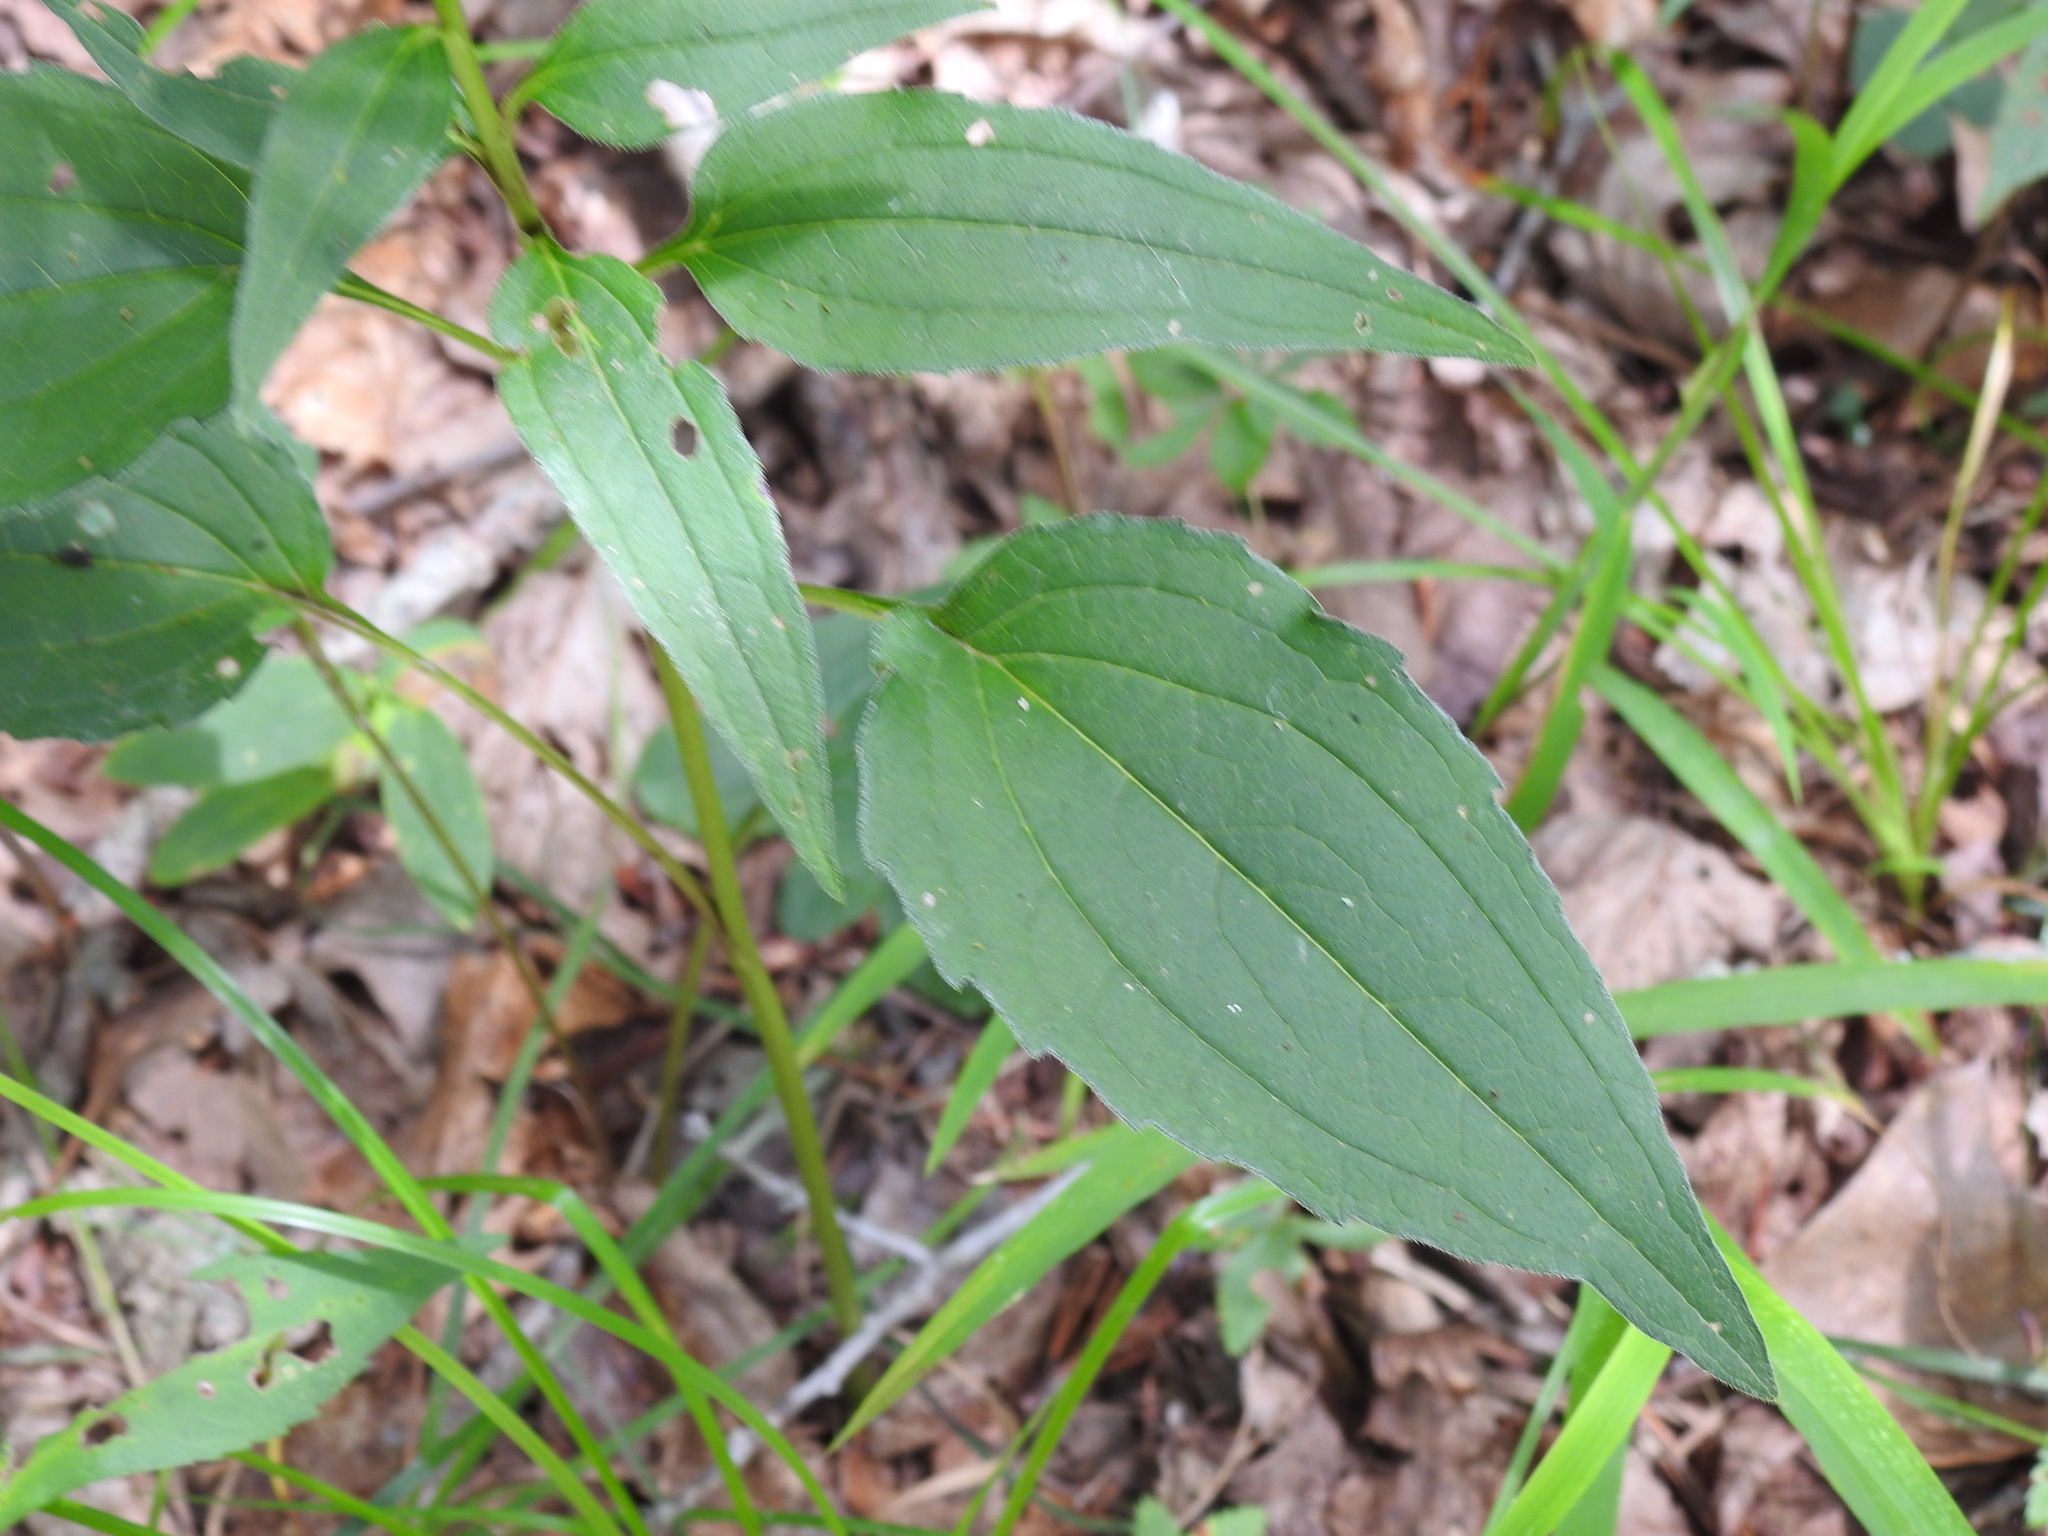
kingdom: Plantae
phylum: Tracheophyta
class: Magnoliopsida
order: Asterales
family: Asteraceae
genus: Rudbeckia
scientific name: Rudbeckia fulgida
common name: Perennial coneflower
